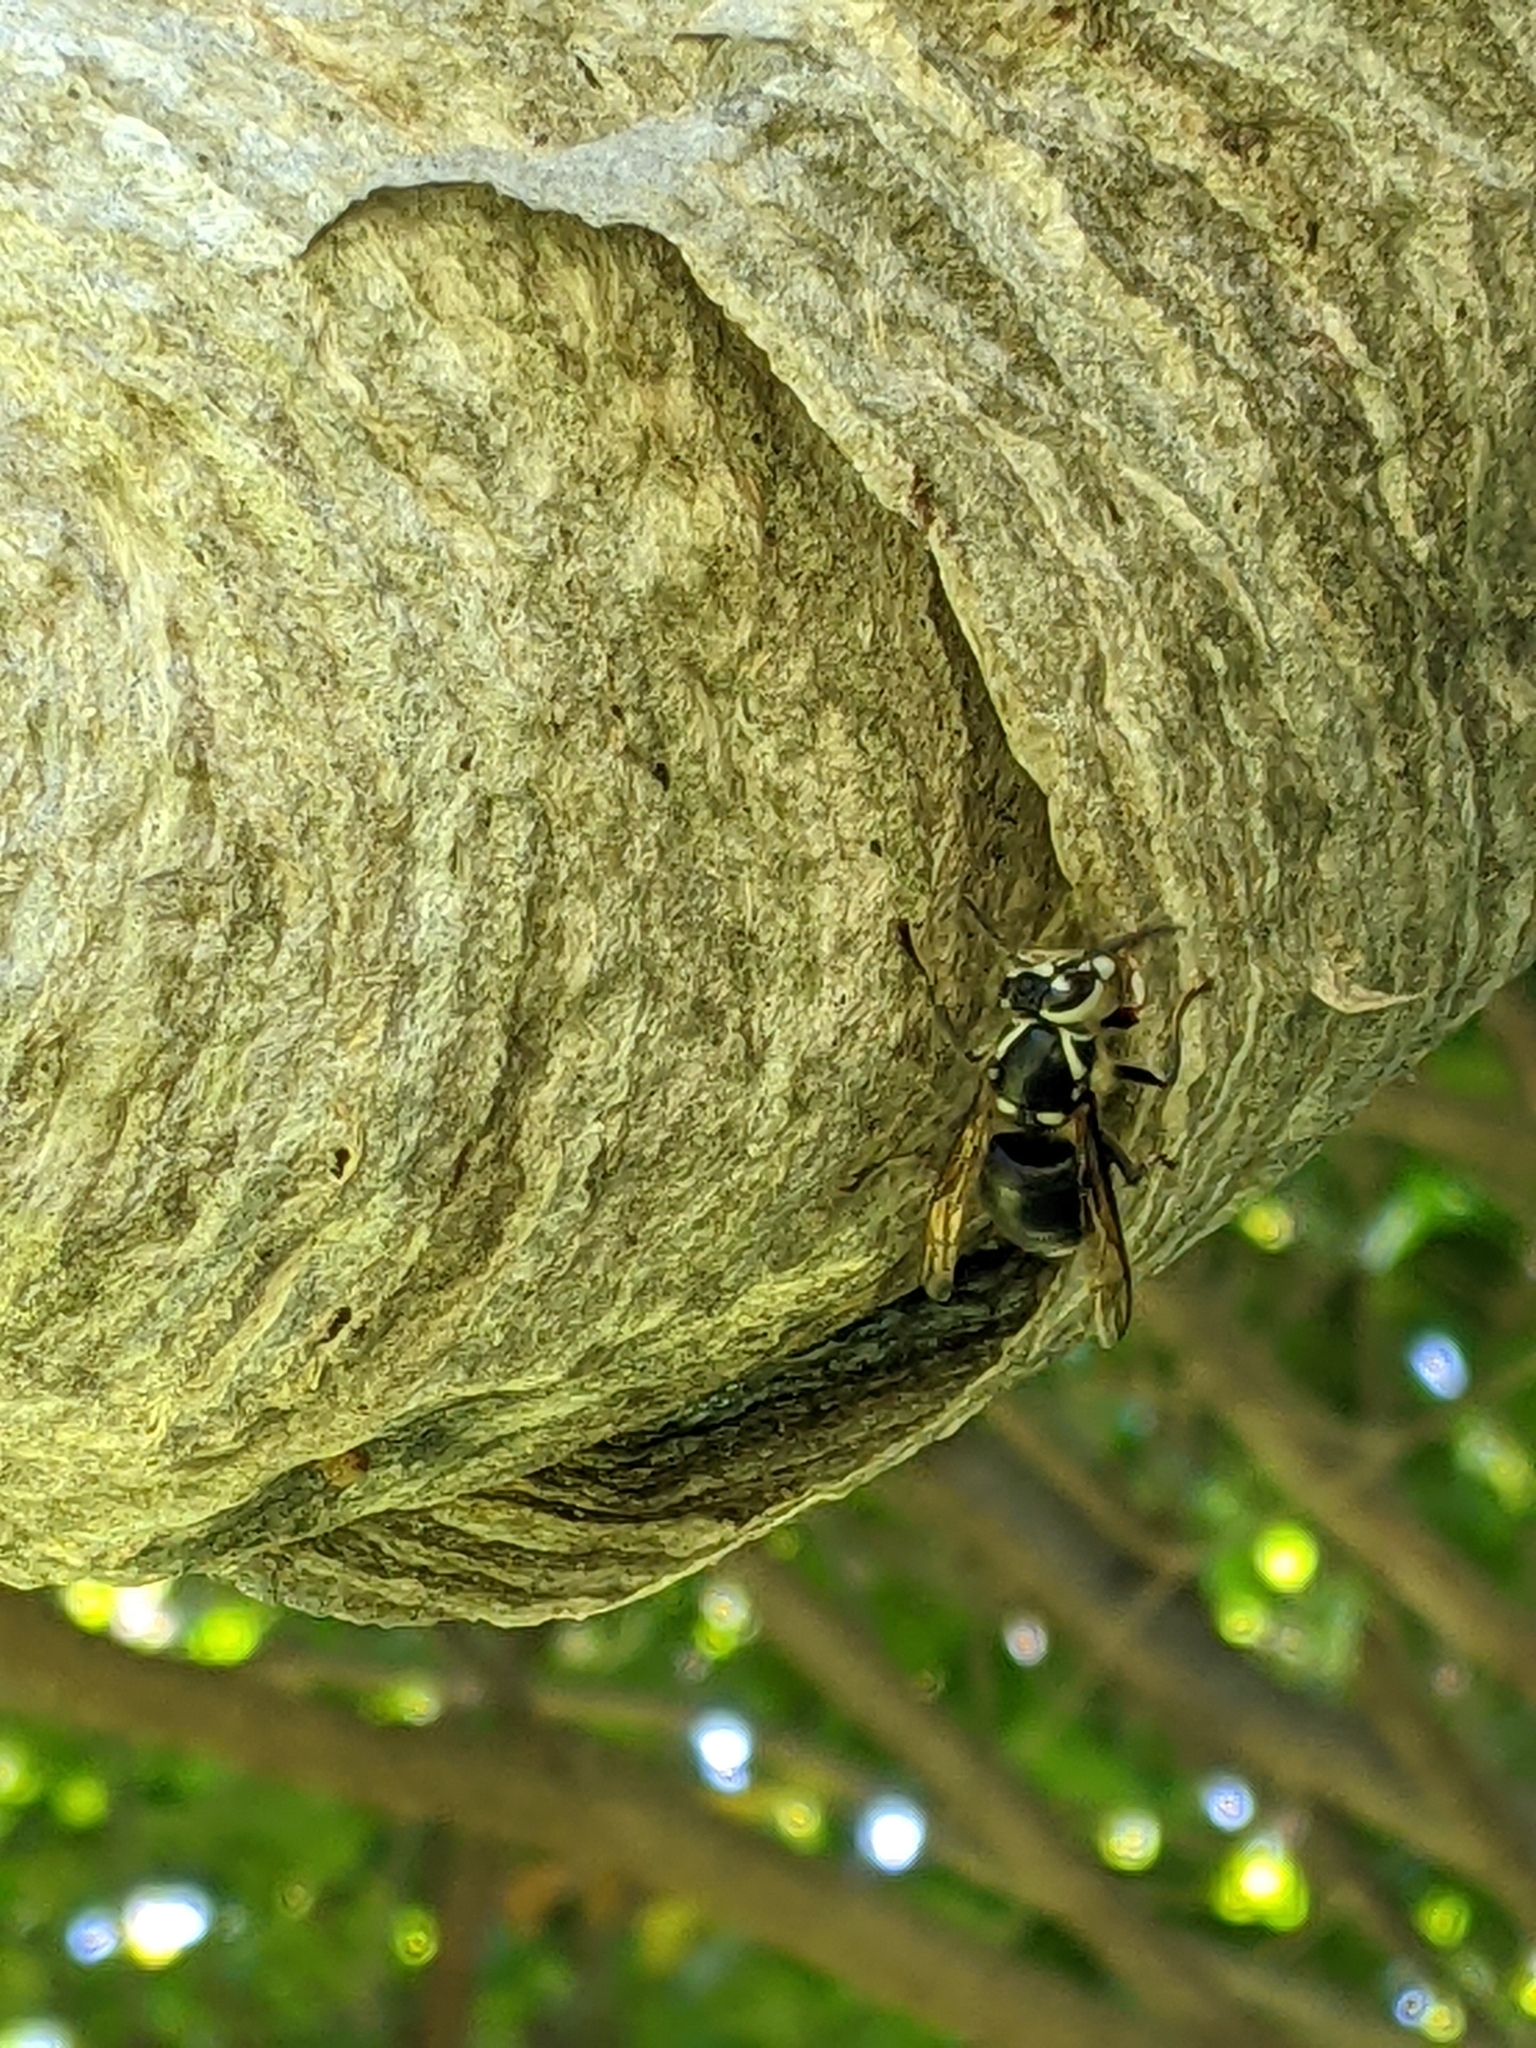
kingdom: Animalia
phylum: Arthropoda
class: Insecta
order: Hymenoptera
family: Vespidae
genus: Dolichovespula
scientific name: Dolichovespula maculata
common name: Bald-faced hornet
